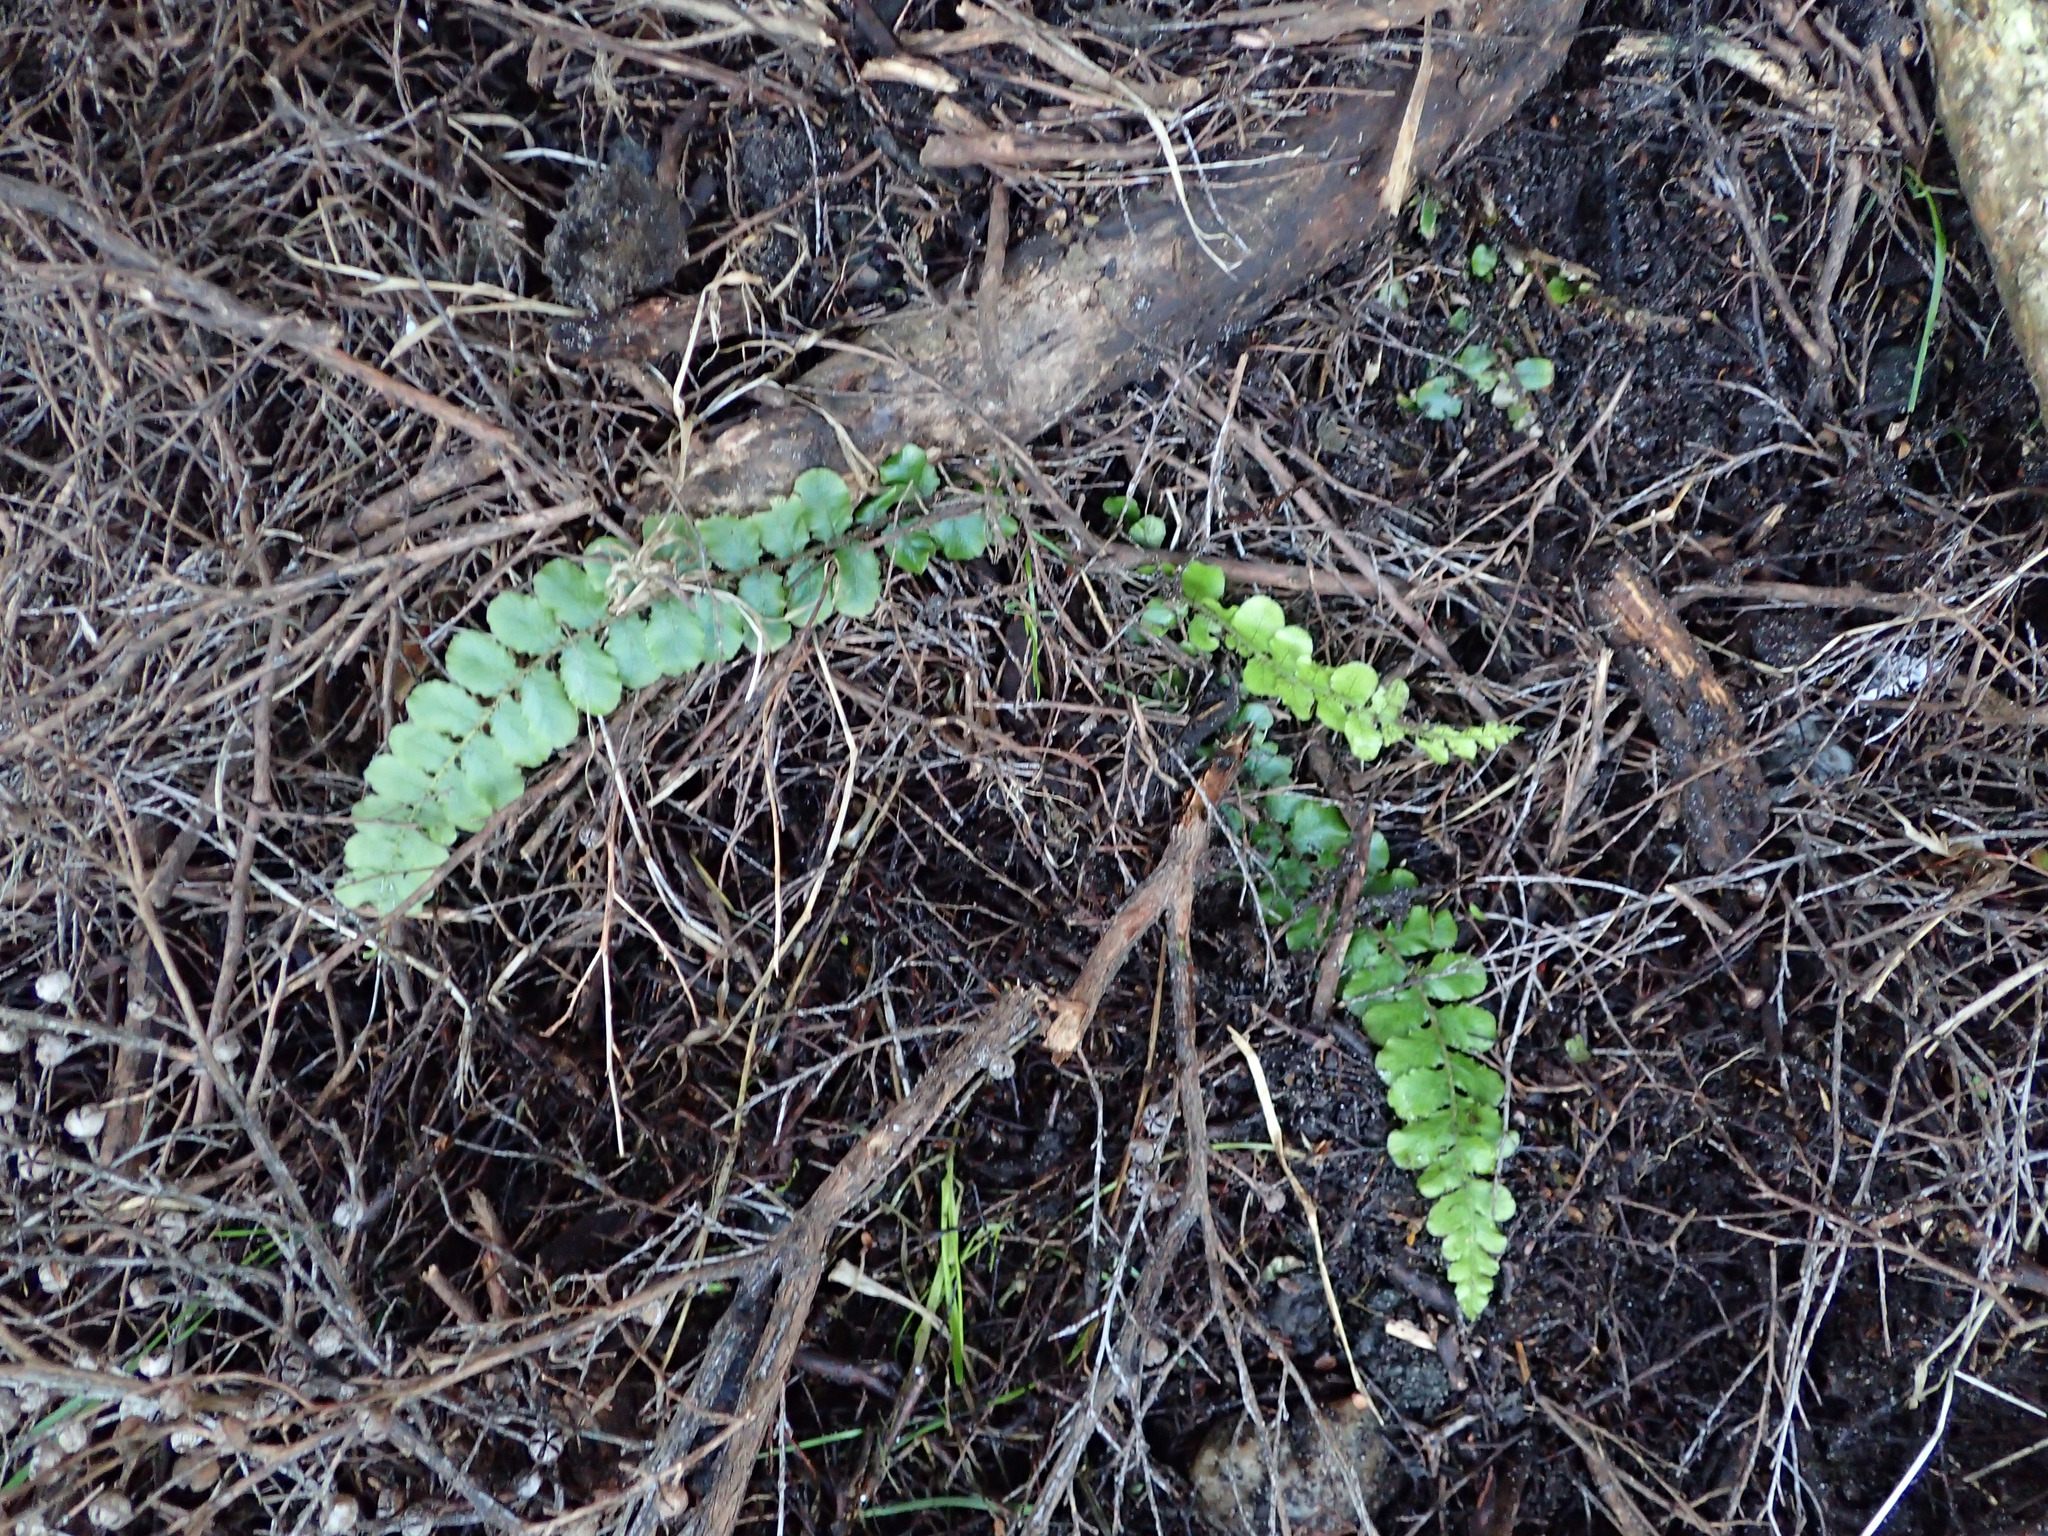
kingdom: Plantae
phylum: Tracheophyta
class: Polypodiopsida
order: Polypodiales
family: Blechnaceae
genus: Cranfillia
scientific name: Cranfillia fluviatilis
